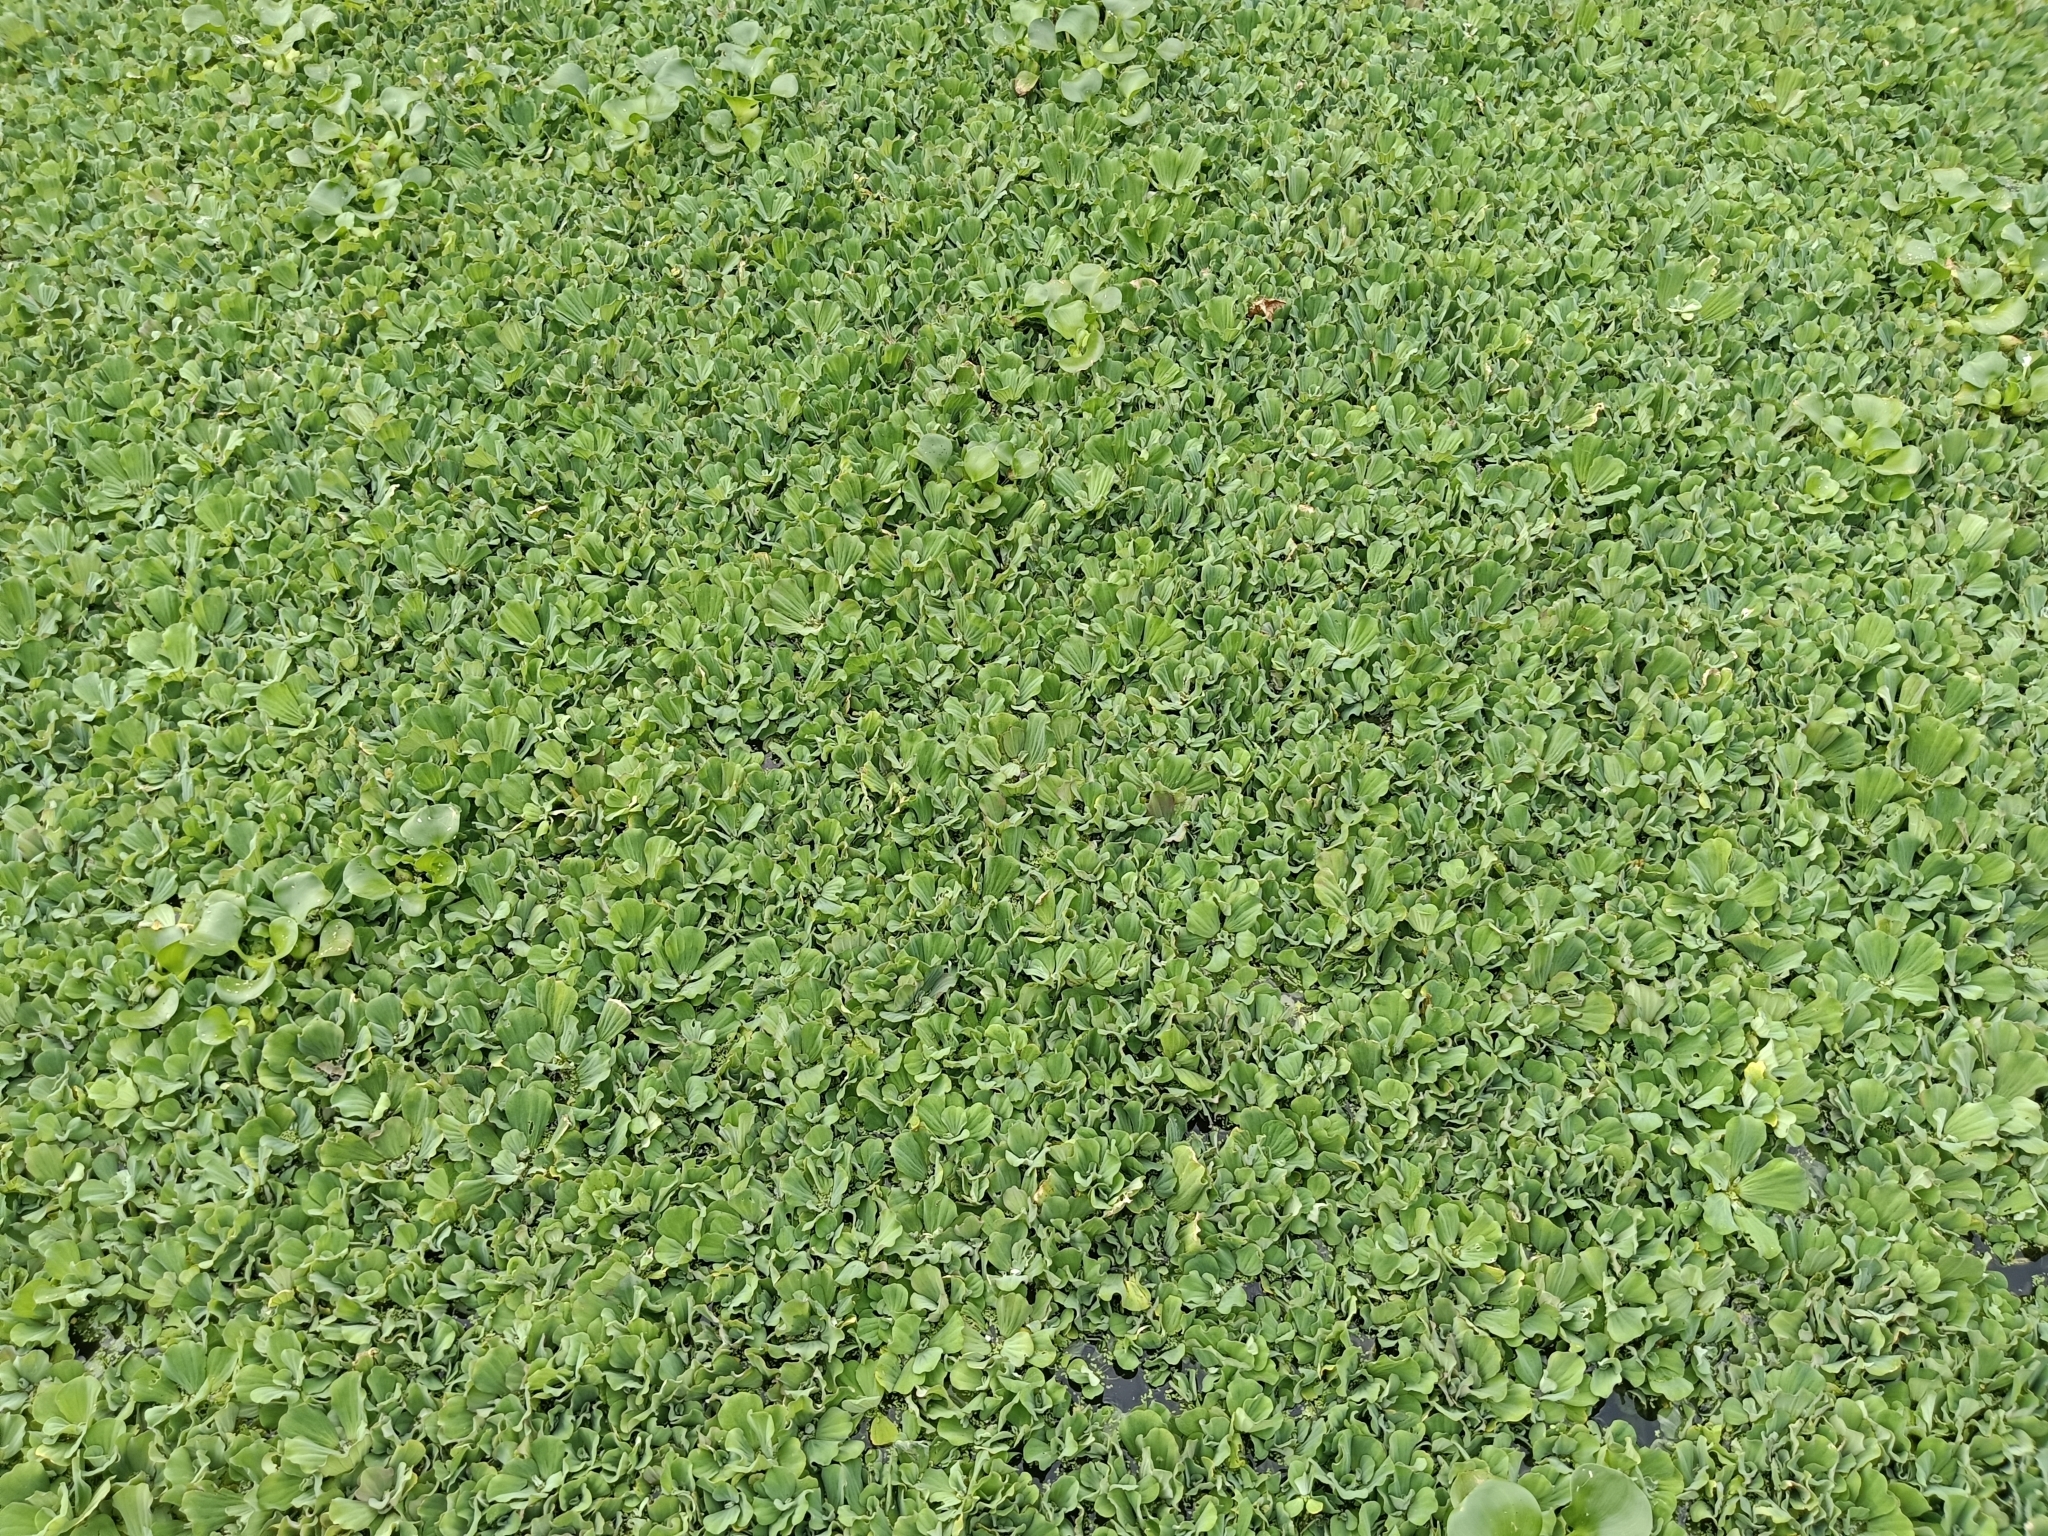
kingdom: Plantae
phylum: Tracheophyta
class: Liliopsida
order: Alismatales
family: Araceae
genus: Pistia
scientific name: Pistia stratiotes
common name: Water lettuce
